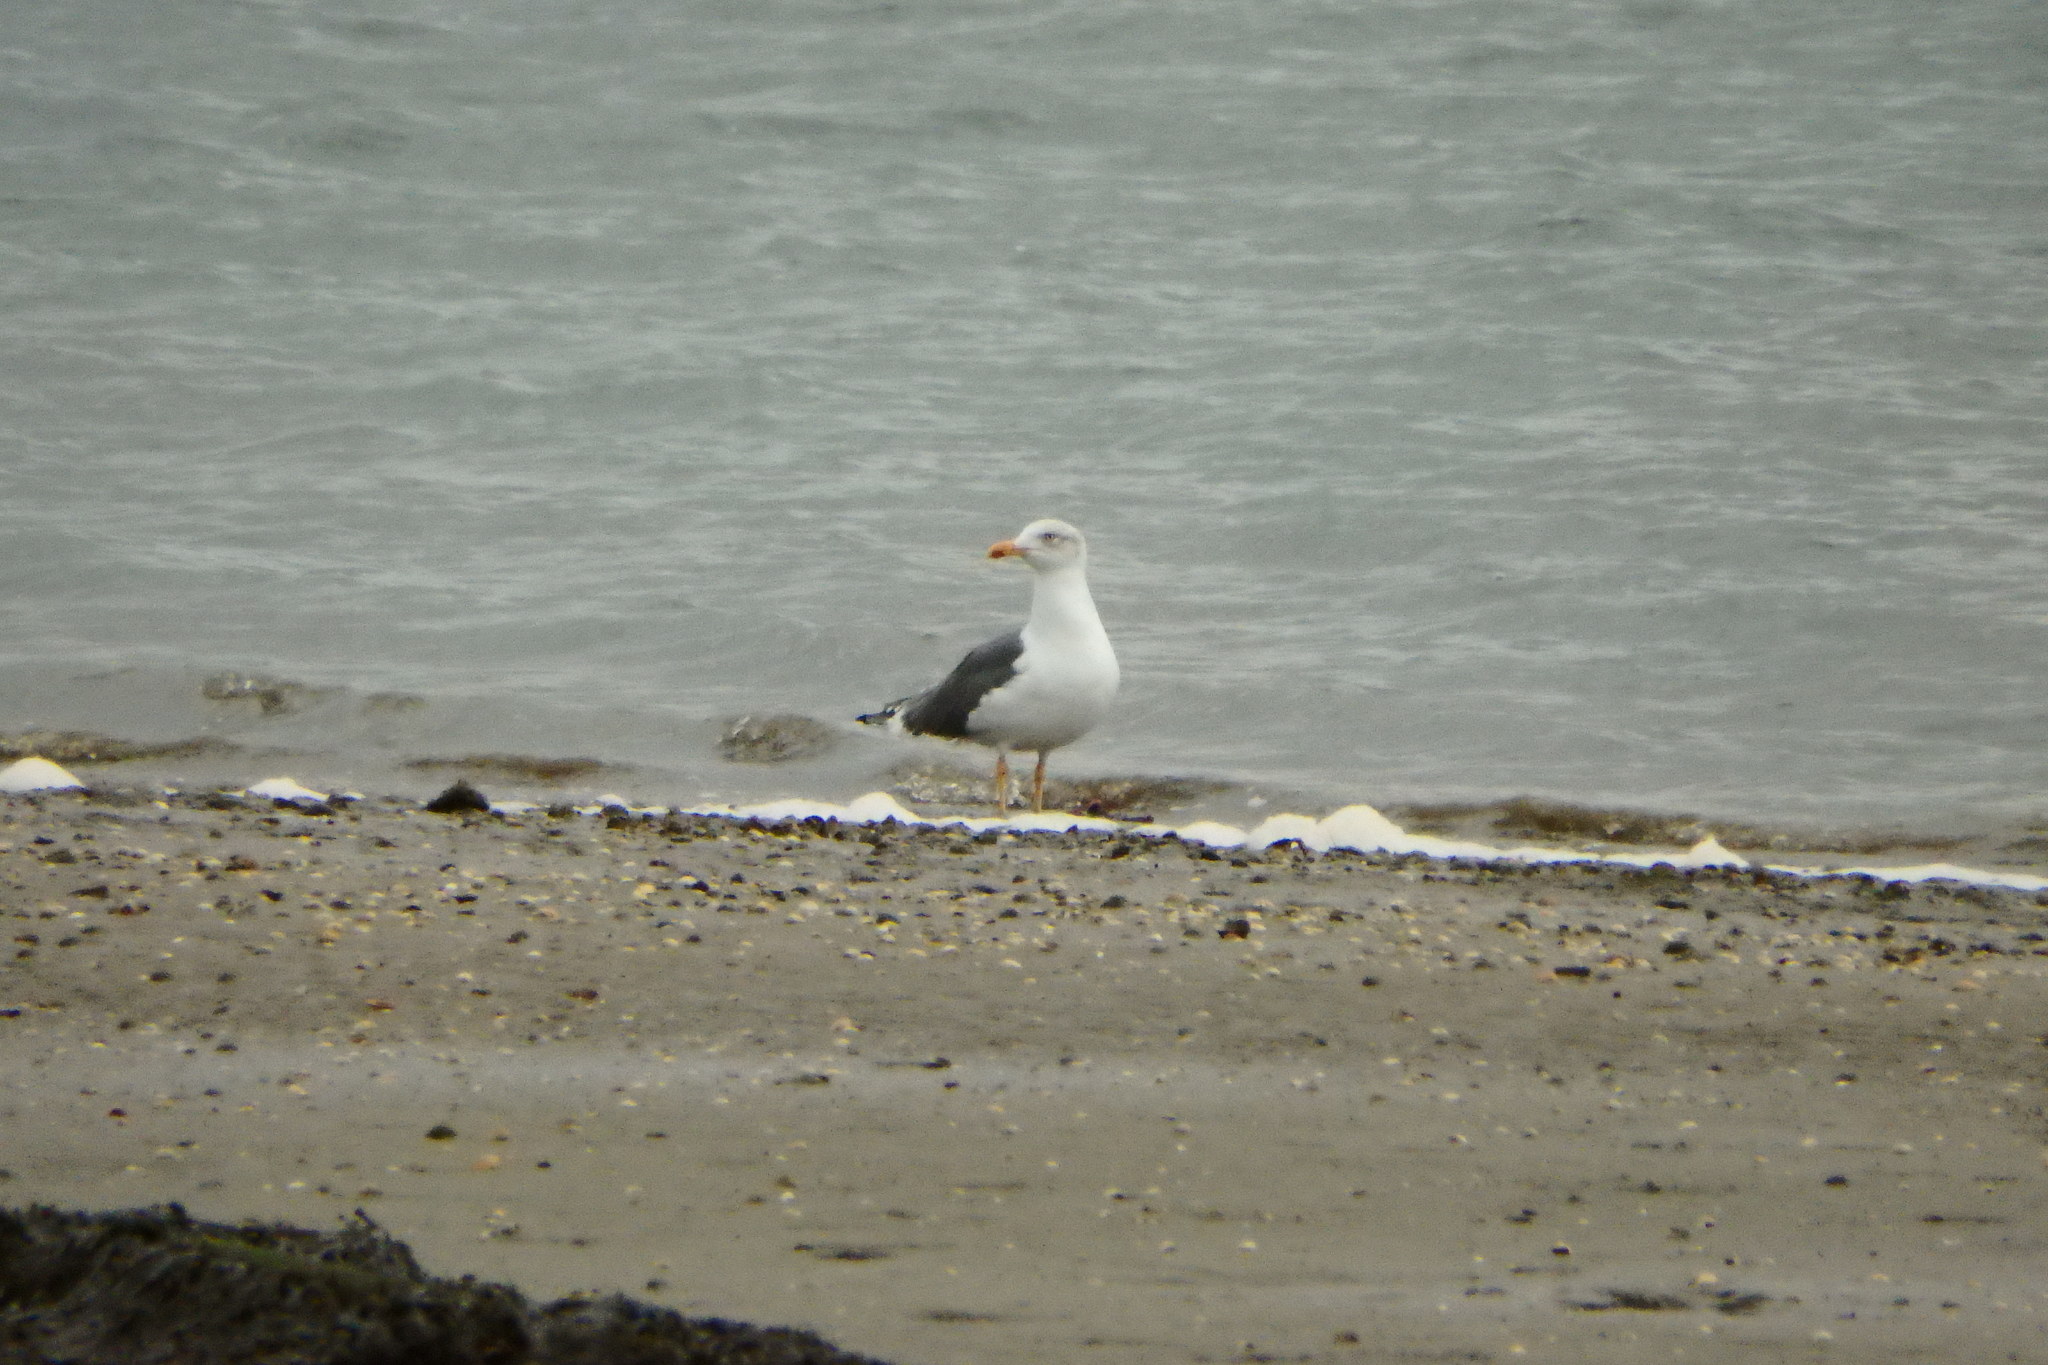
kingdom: Animalia
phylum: Chordata
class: Aves
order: Charadriiformes
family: Laridae
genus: Larus
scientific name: Larus fuscus
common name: Lesser black-backed gull
